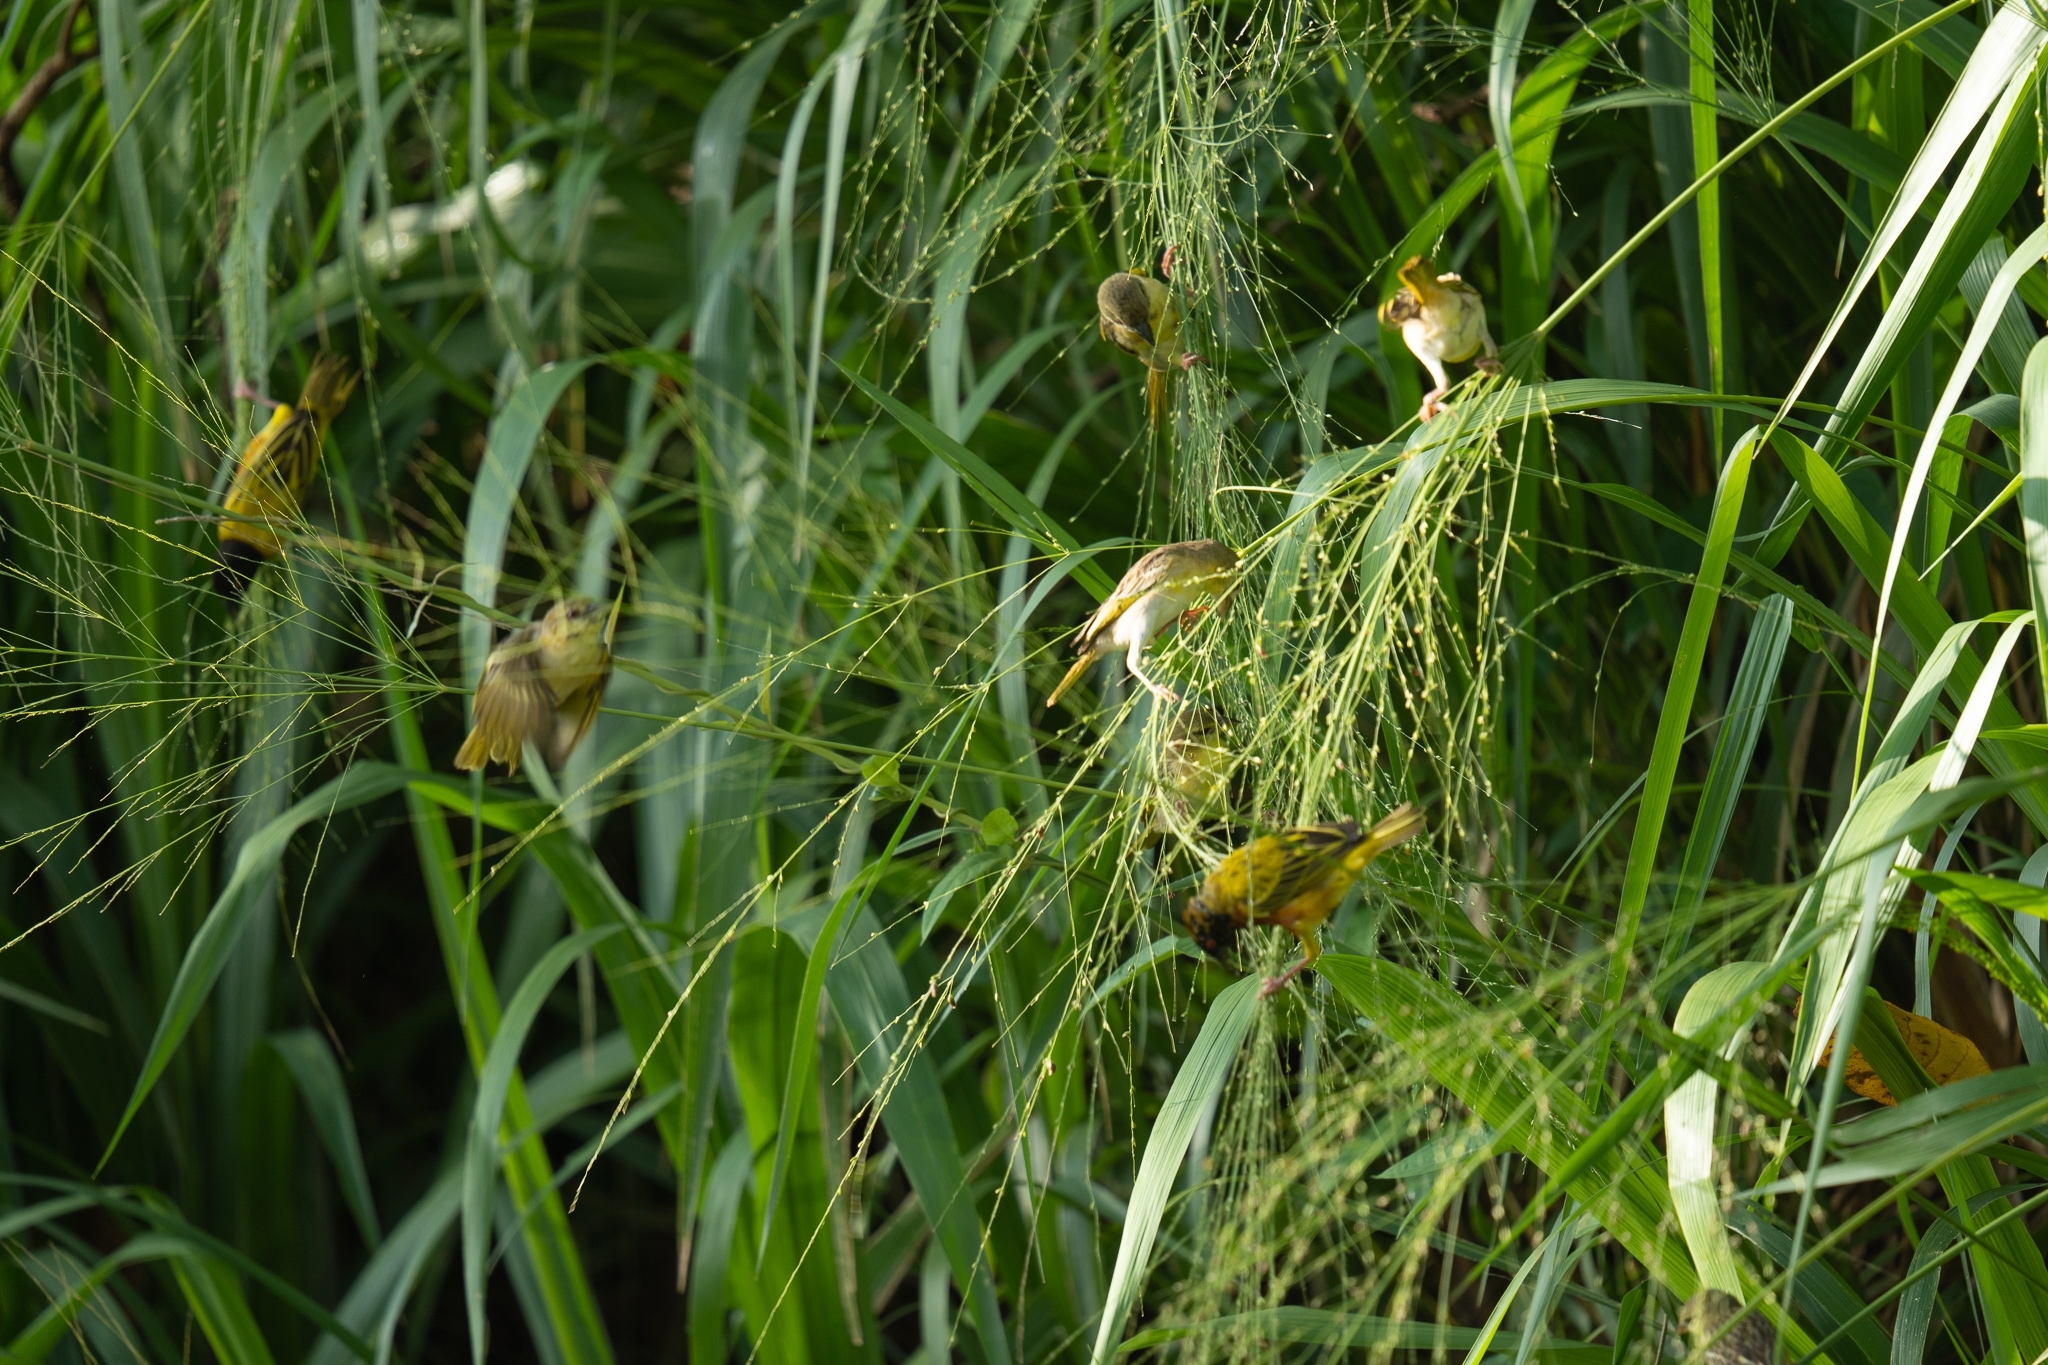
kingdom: Animalia
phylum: Chordata
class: Aves
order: Passeriformes
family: Ploceidae
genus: Ploceus
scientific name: Ploceus jacksoni
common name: Golden-backed weaver
